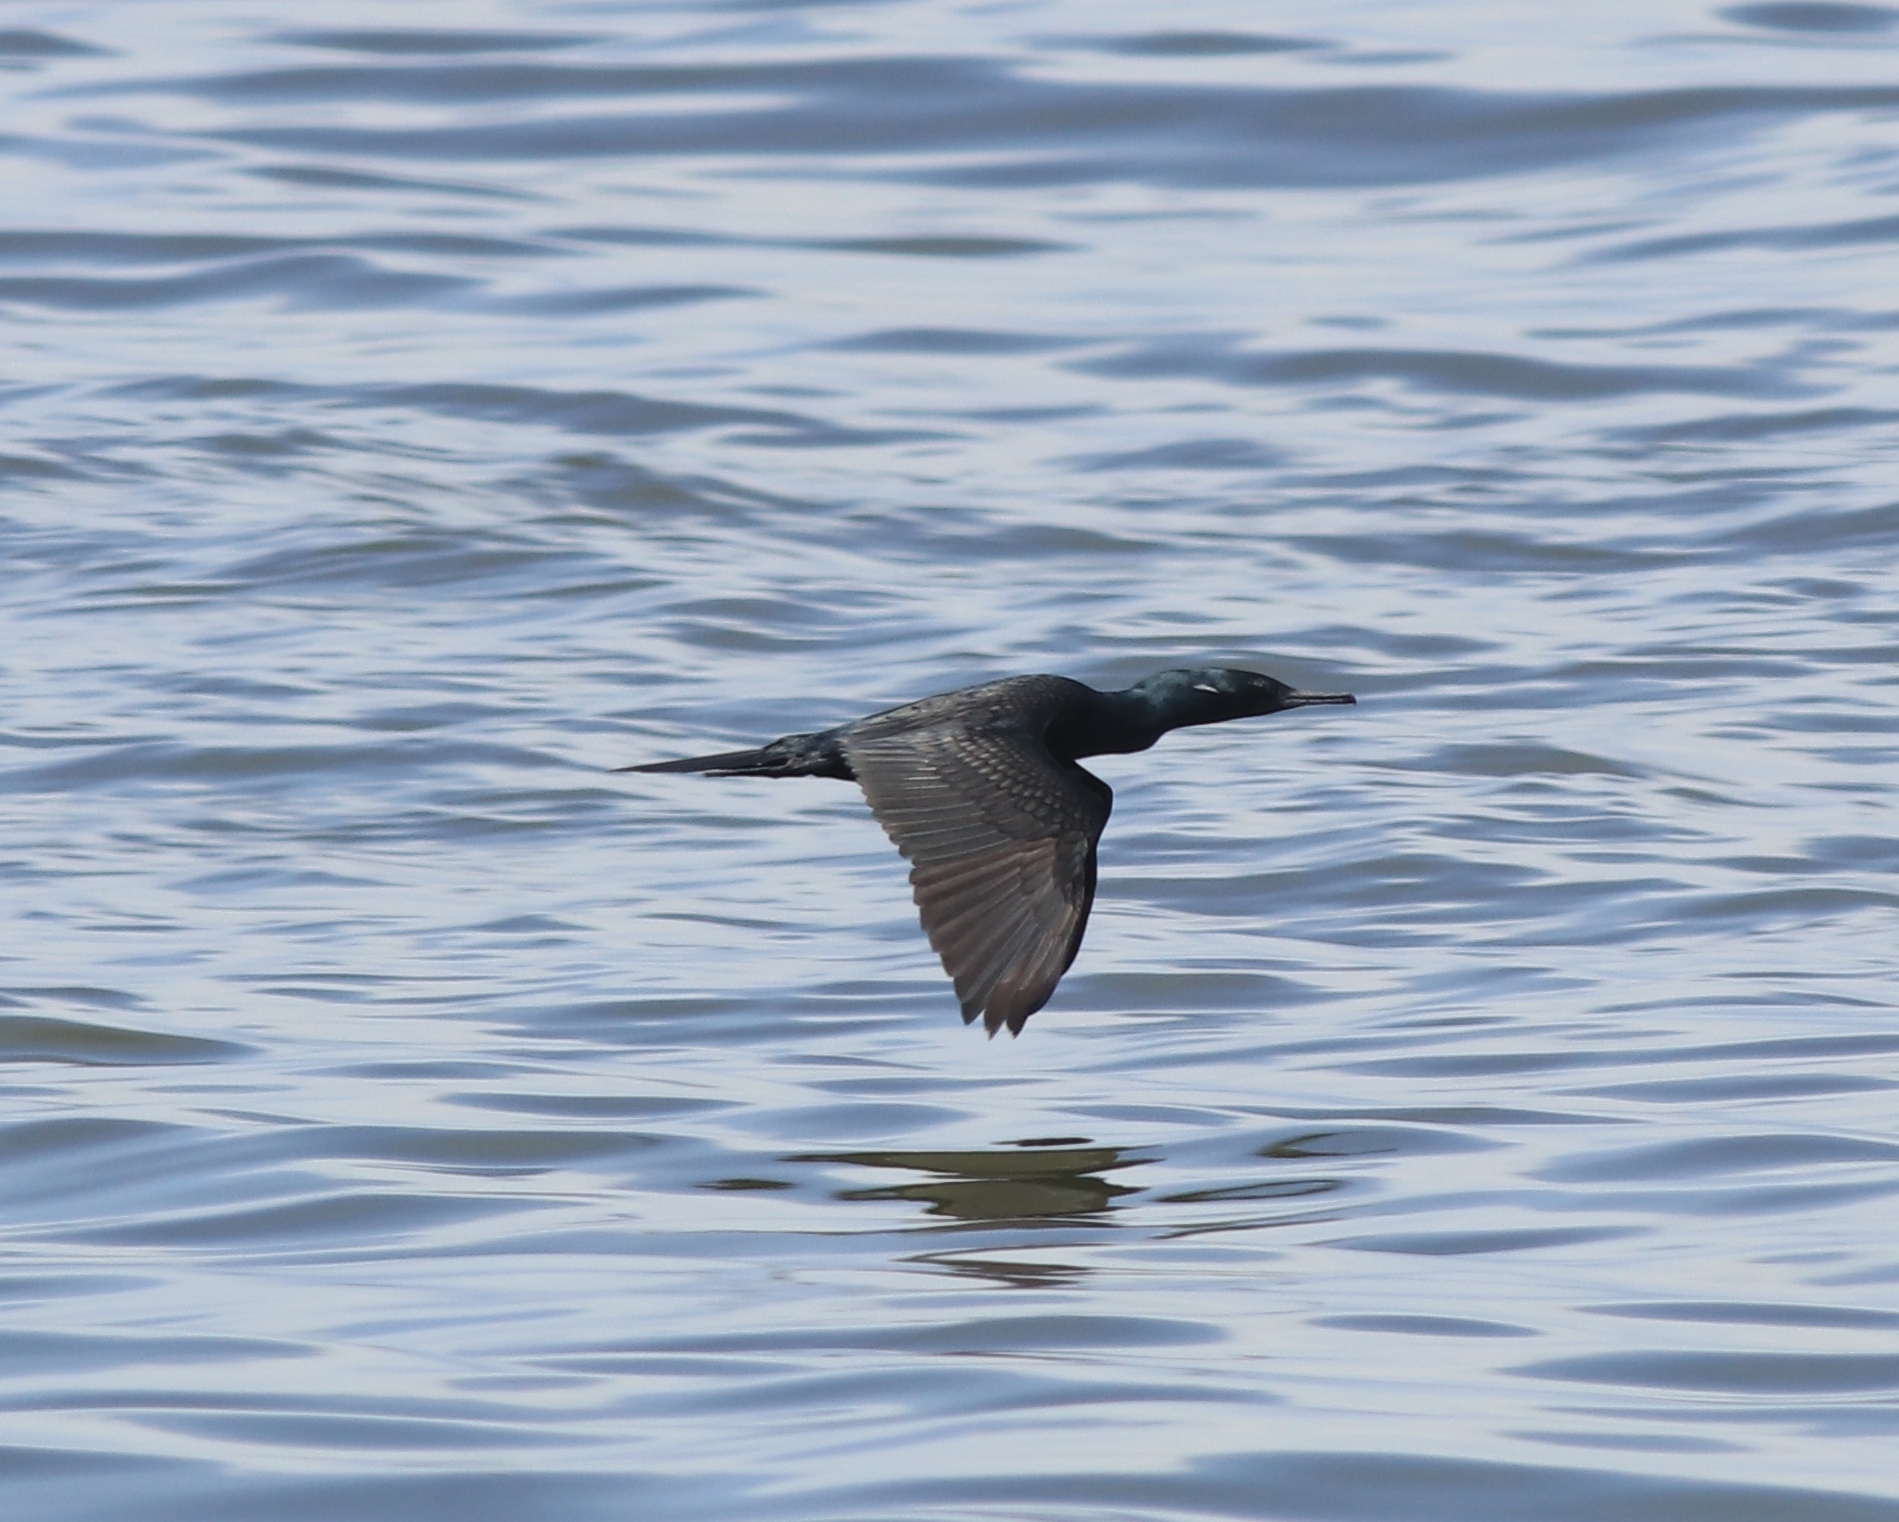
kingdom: Animalia
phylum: Chordata
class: Aves
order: Suliformes
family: Phalacrocoracidae
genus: Phalacrocorax
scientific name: Phalacrocorax fuscicollis
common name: Indian cormorant
